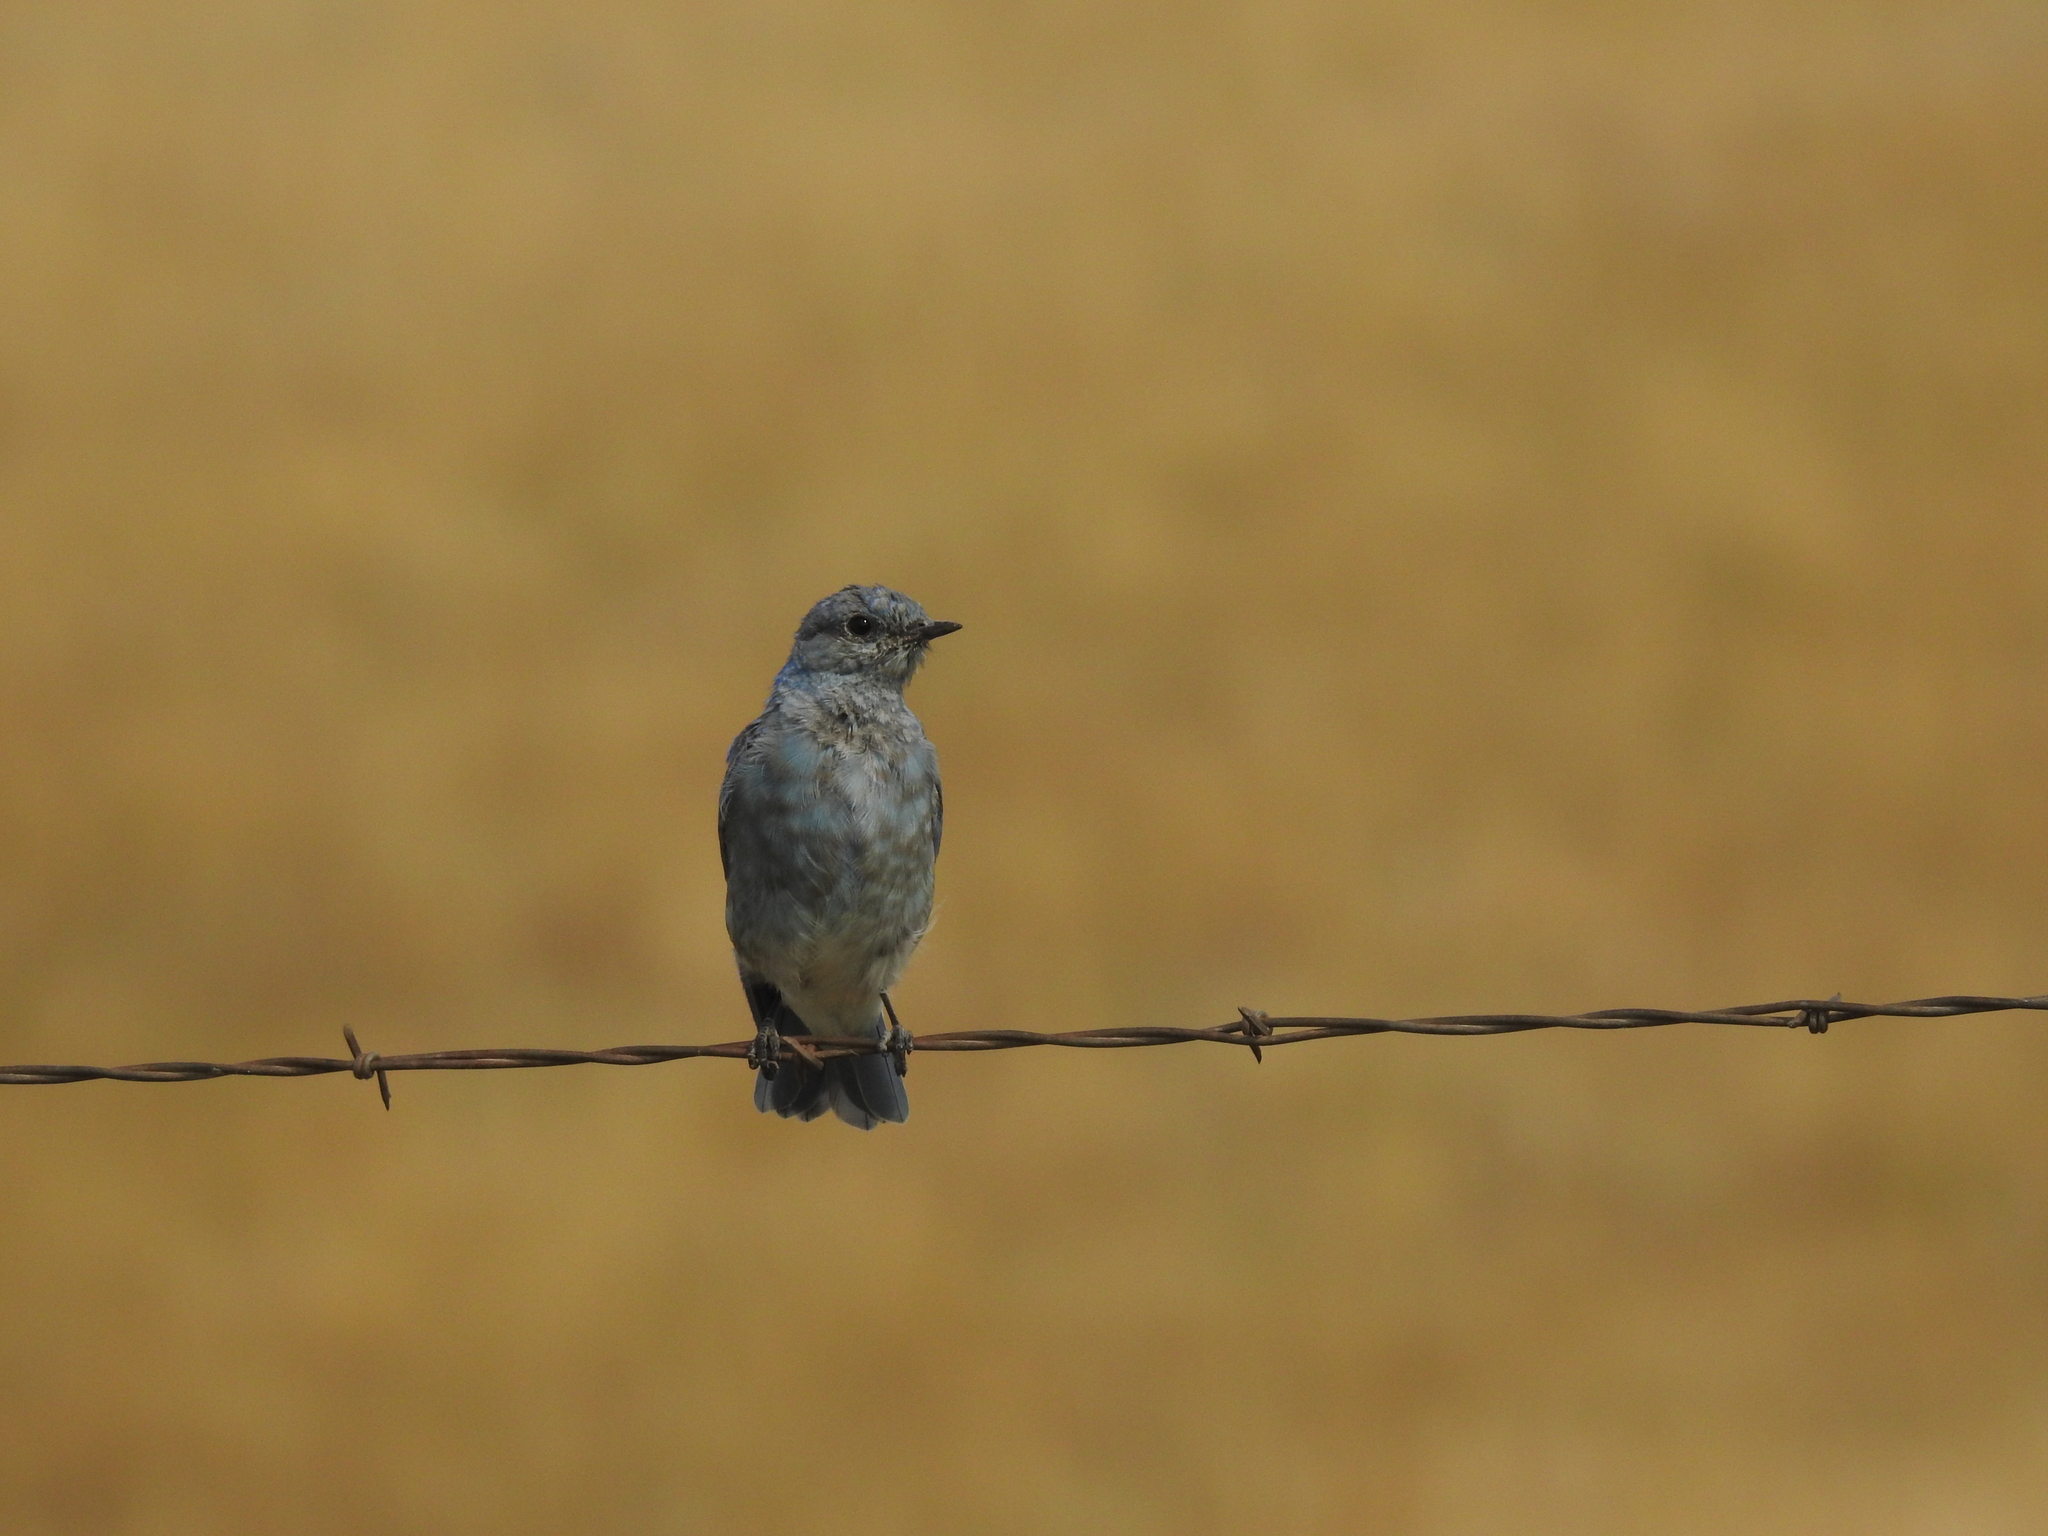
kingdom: Animalia
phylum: Chordata
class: Aves
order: Passeriformes
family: Turdidae
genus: Sialia
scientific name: Sialia currucoides
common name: Mountain bluebird
